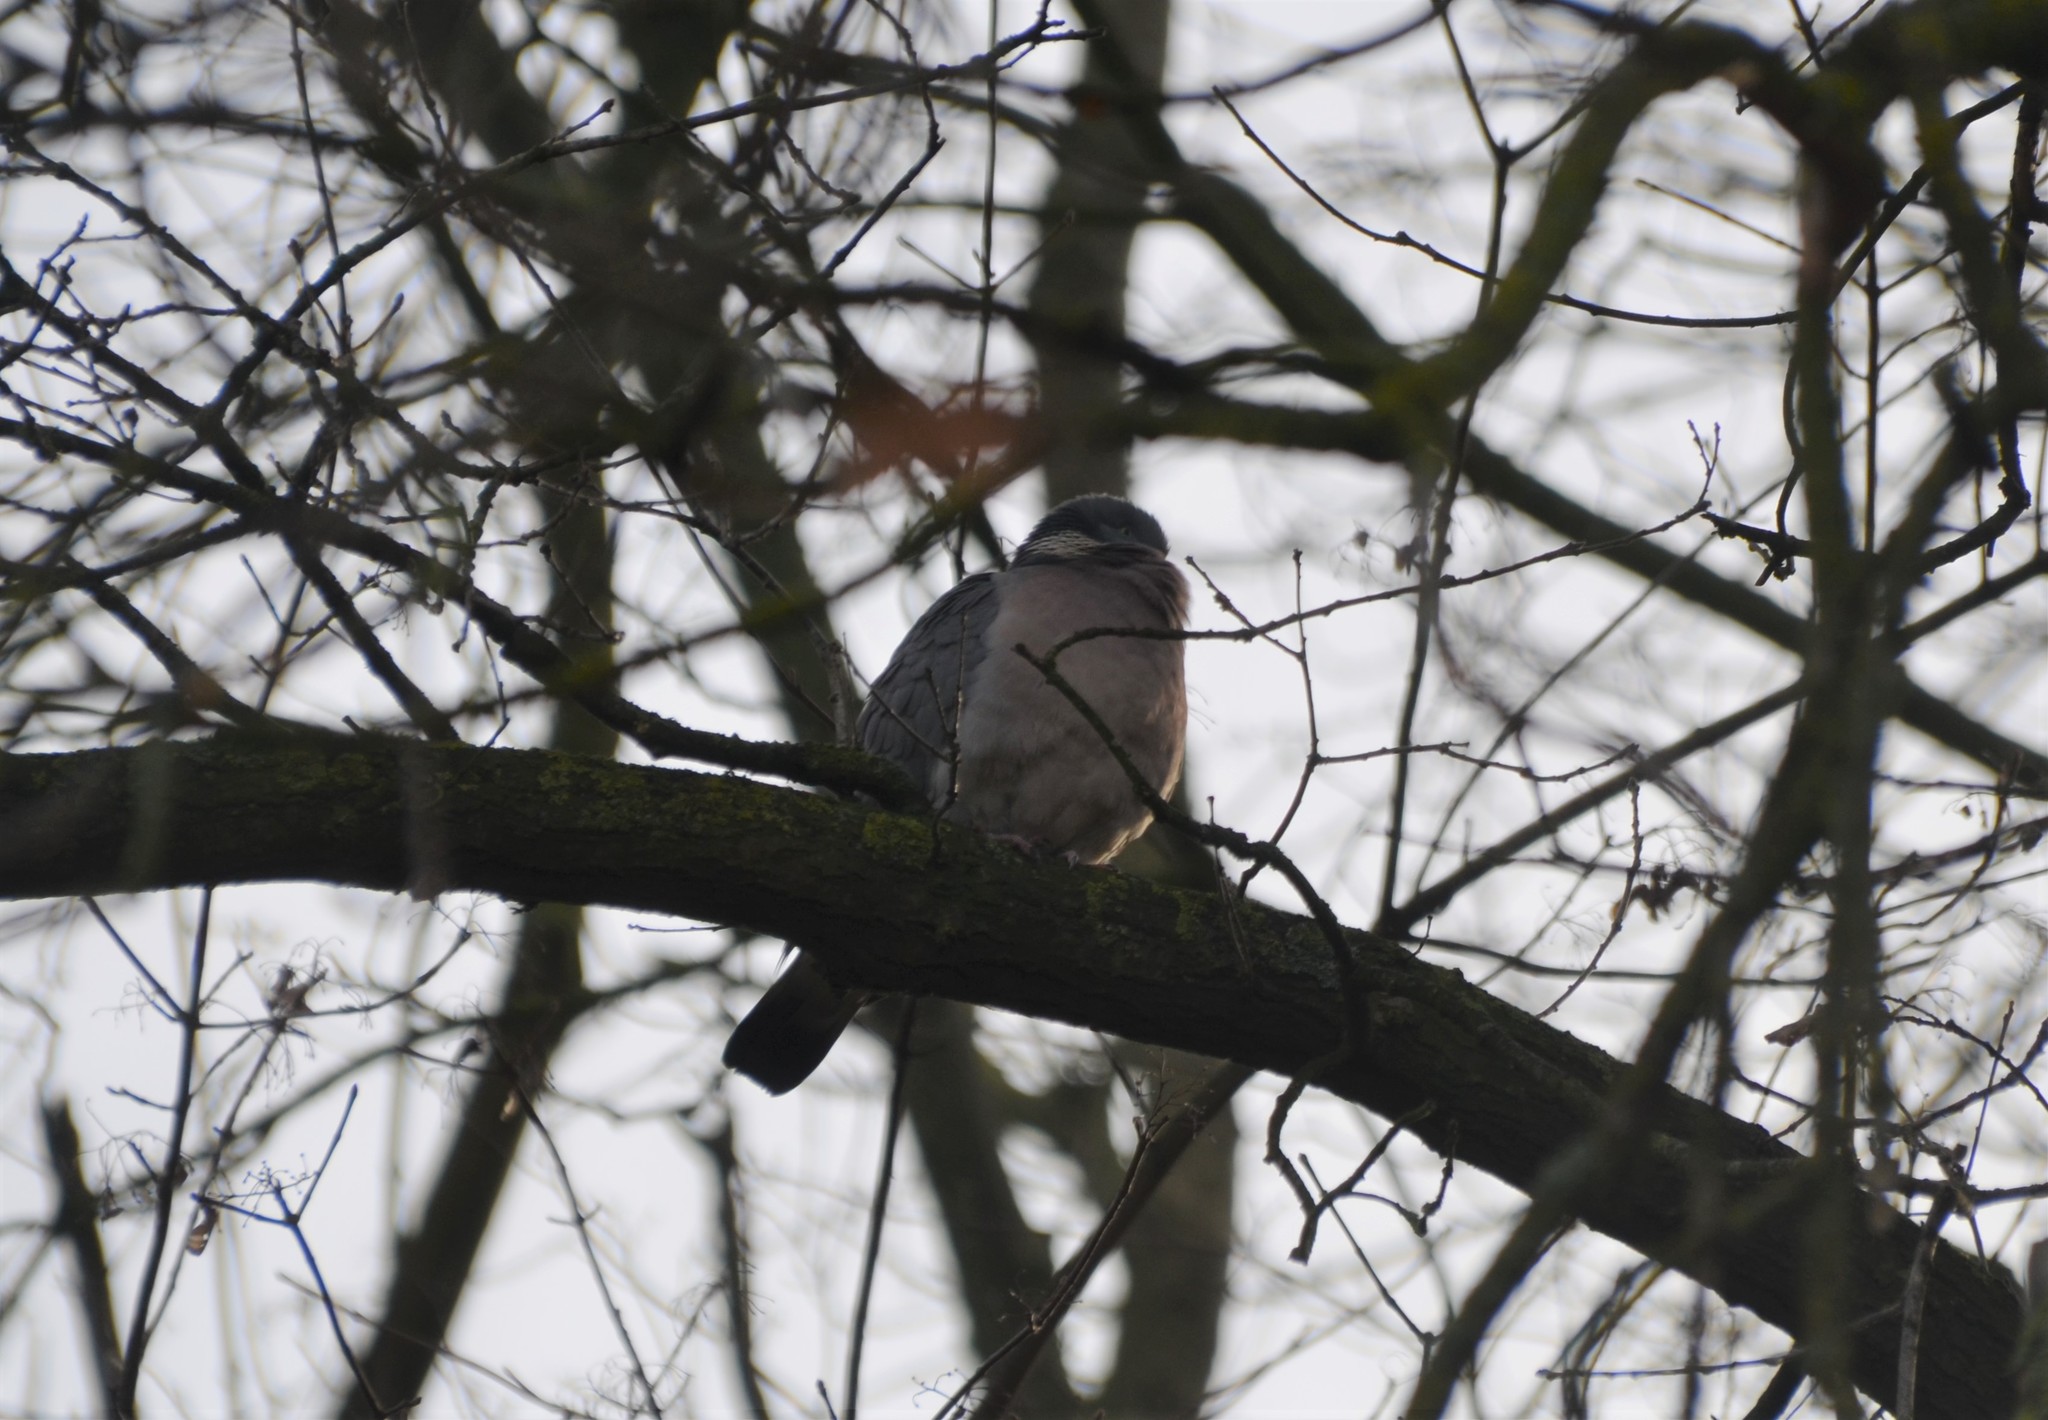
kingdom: Animalia
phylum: Chordata
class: Aves
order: Columbiformes
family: Columbidae
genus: Columba
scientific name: Columba palumbus
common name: Common wood pigeon
